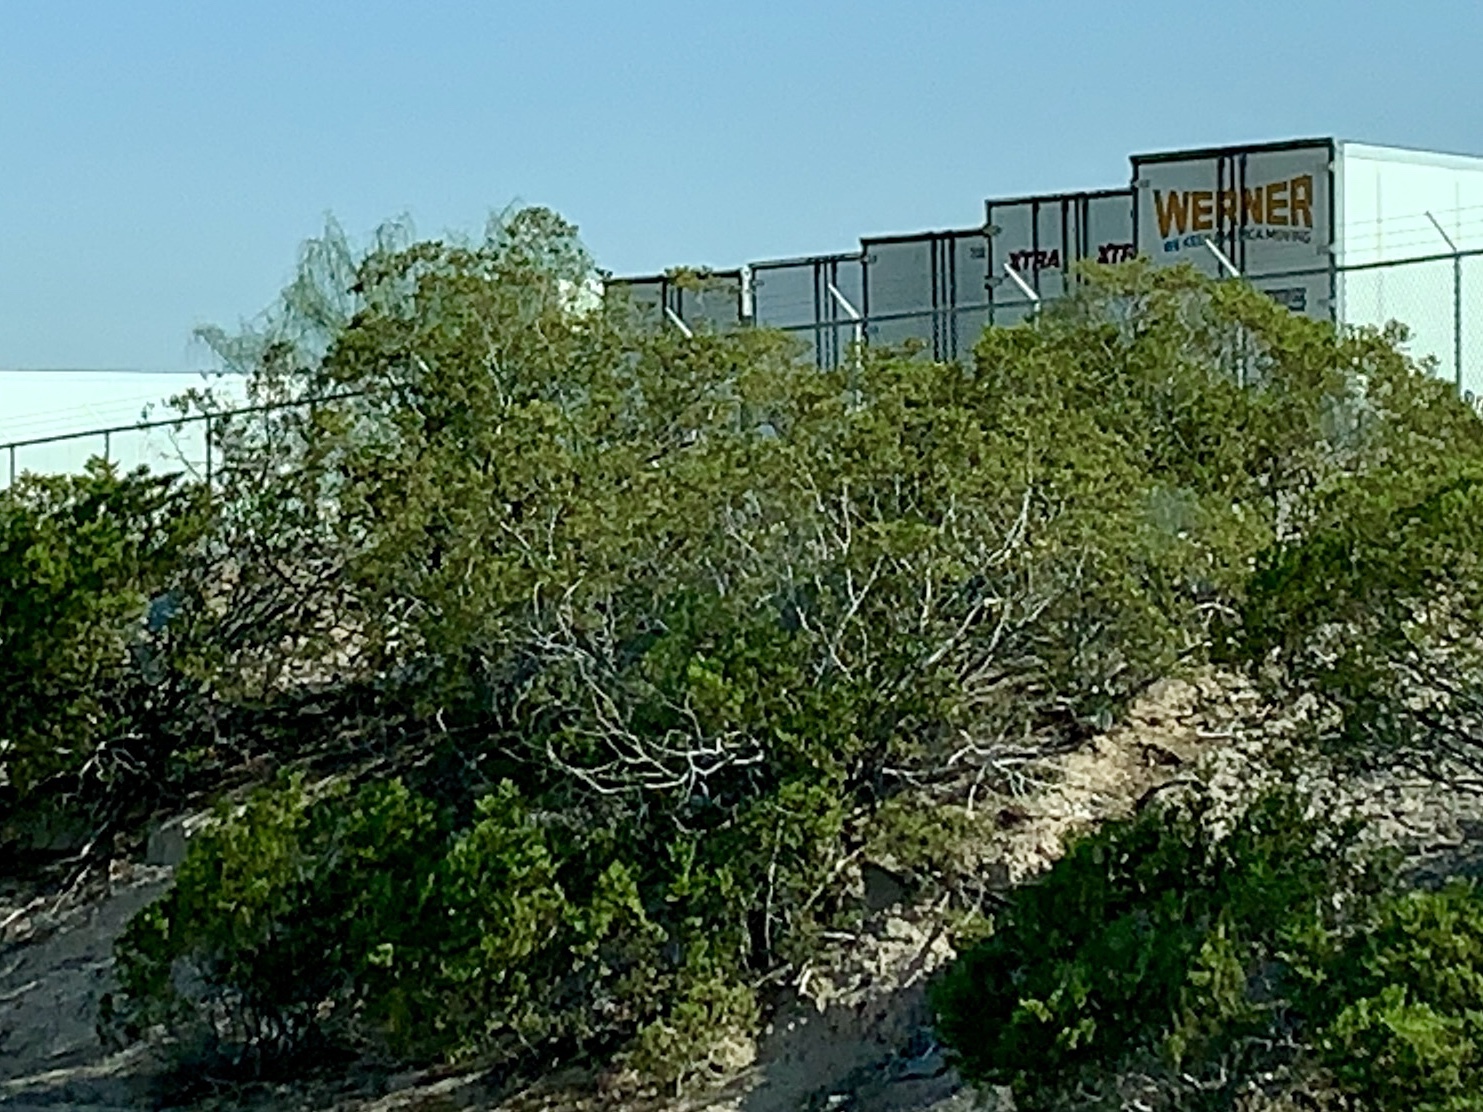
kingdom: Plantae
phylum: Tracheophyta
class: Magnoliopsida
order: Zygophyllales
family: Zygophyllaceae
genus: Larrea
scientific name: Larrea tridentata
